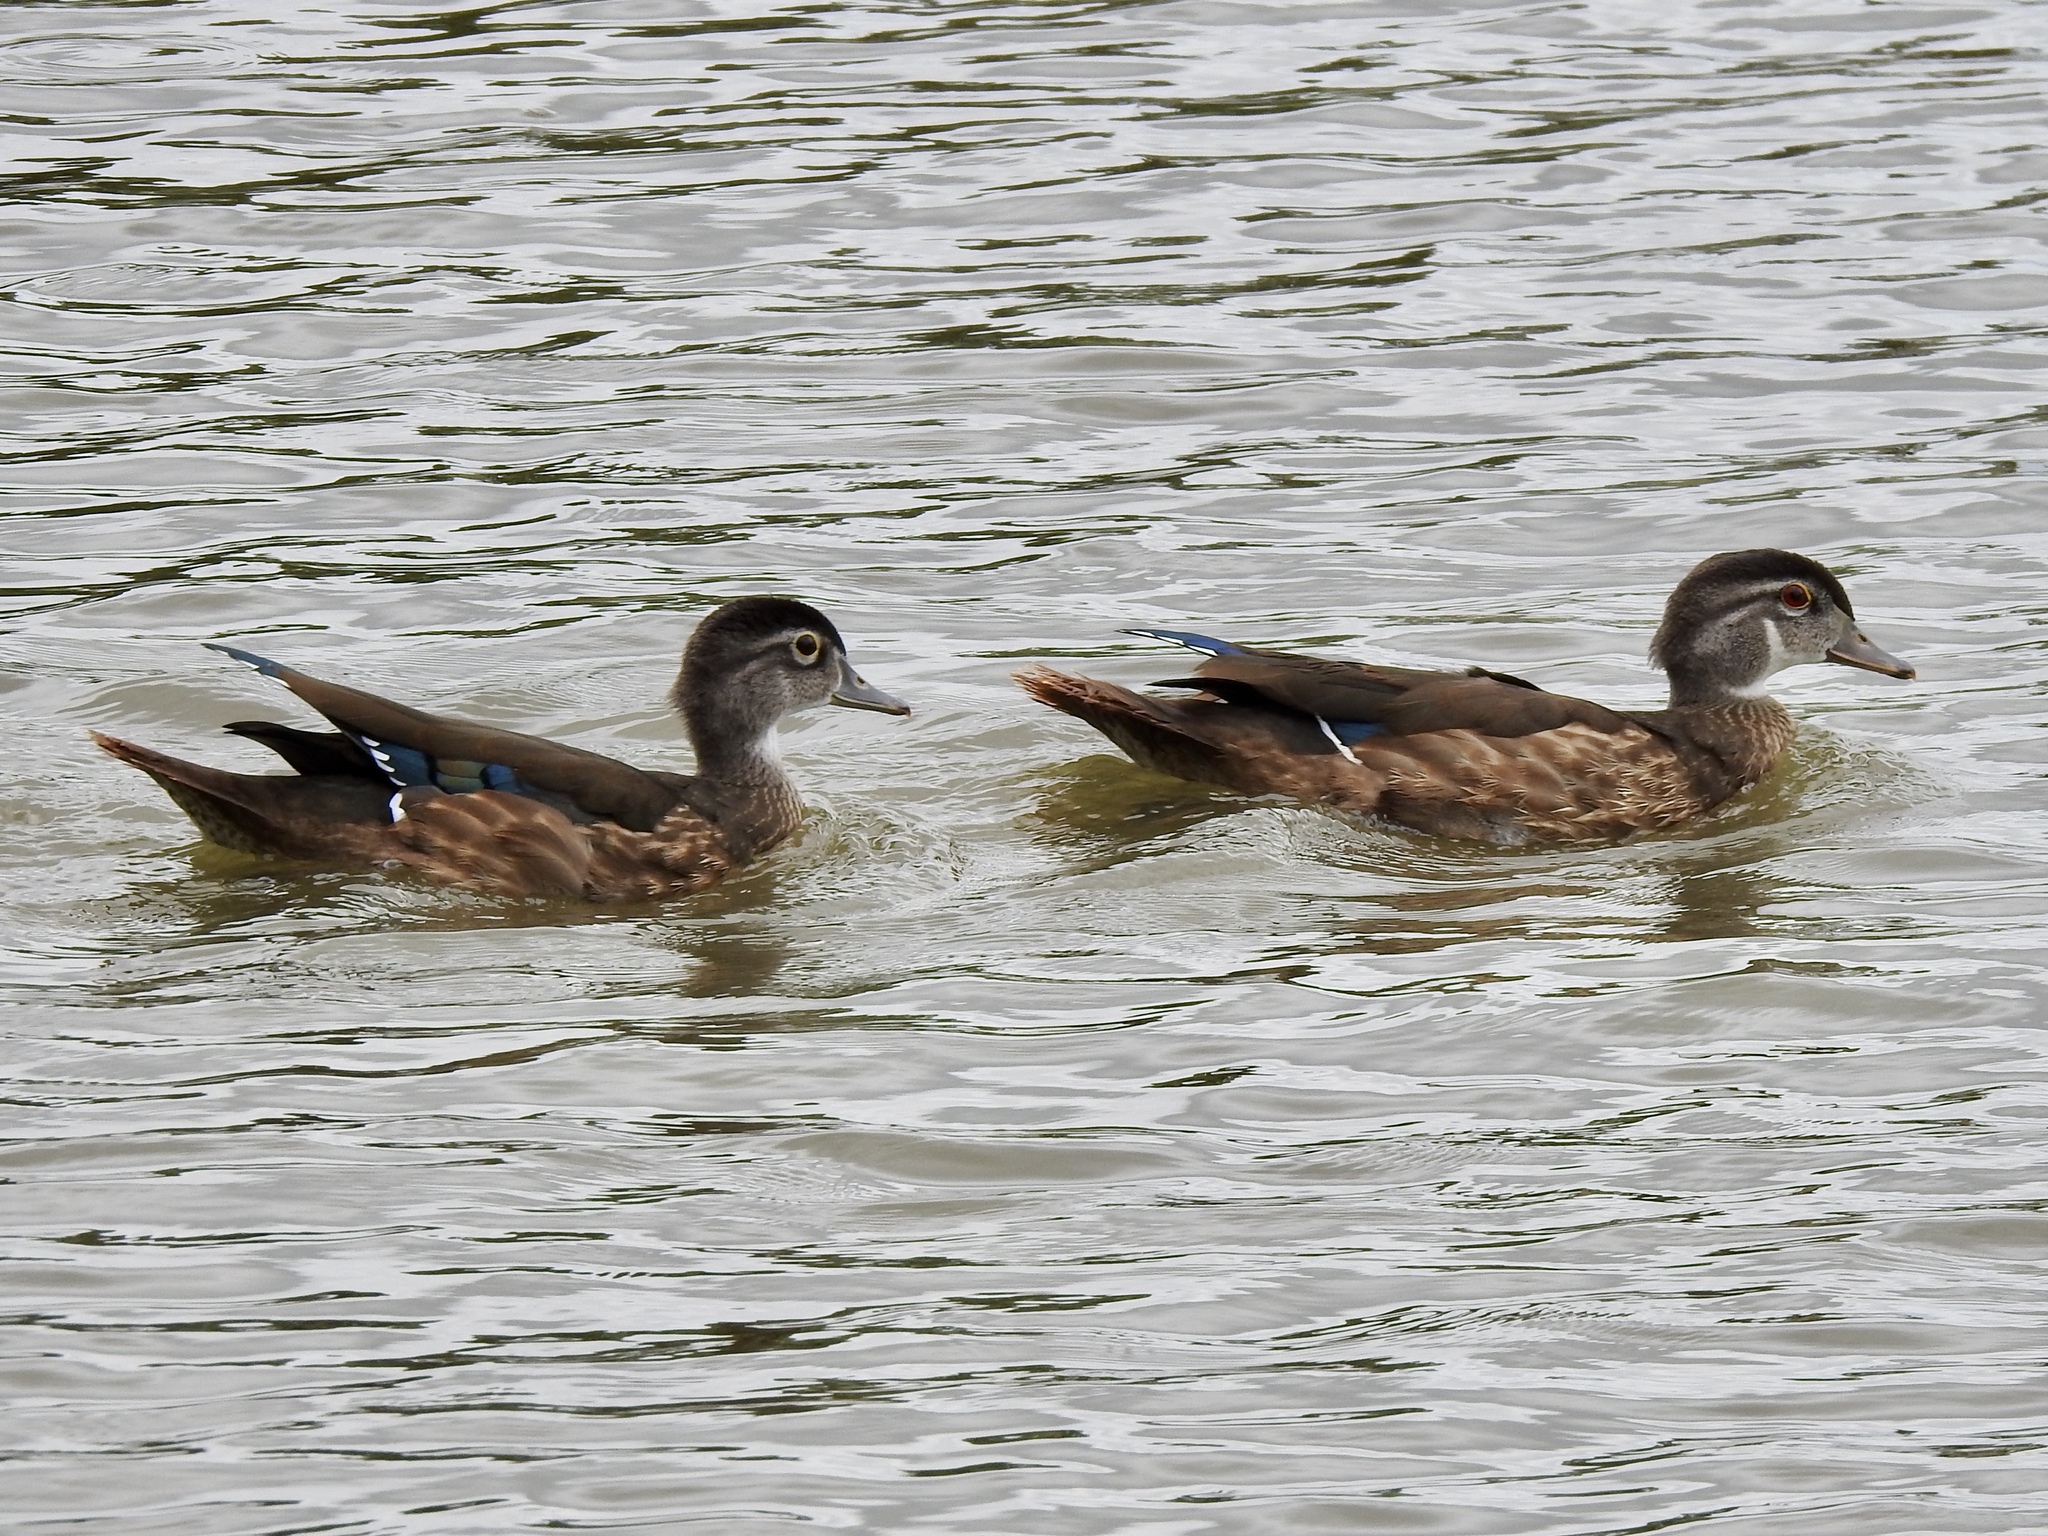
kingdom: Animalia
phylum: Chordata
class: Aves
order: Anseriformes
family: Anatidae
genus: Aix
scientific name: Aix sponsa
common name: Wood duck
